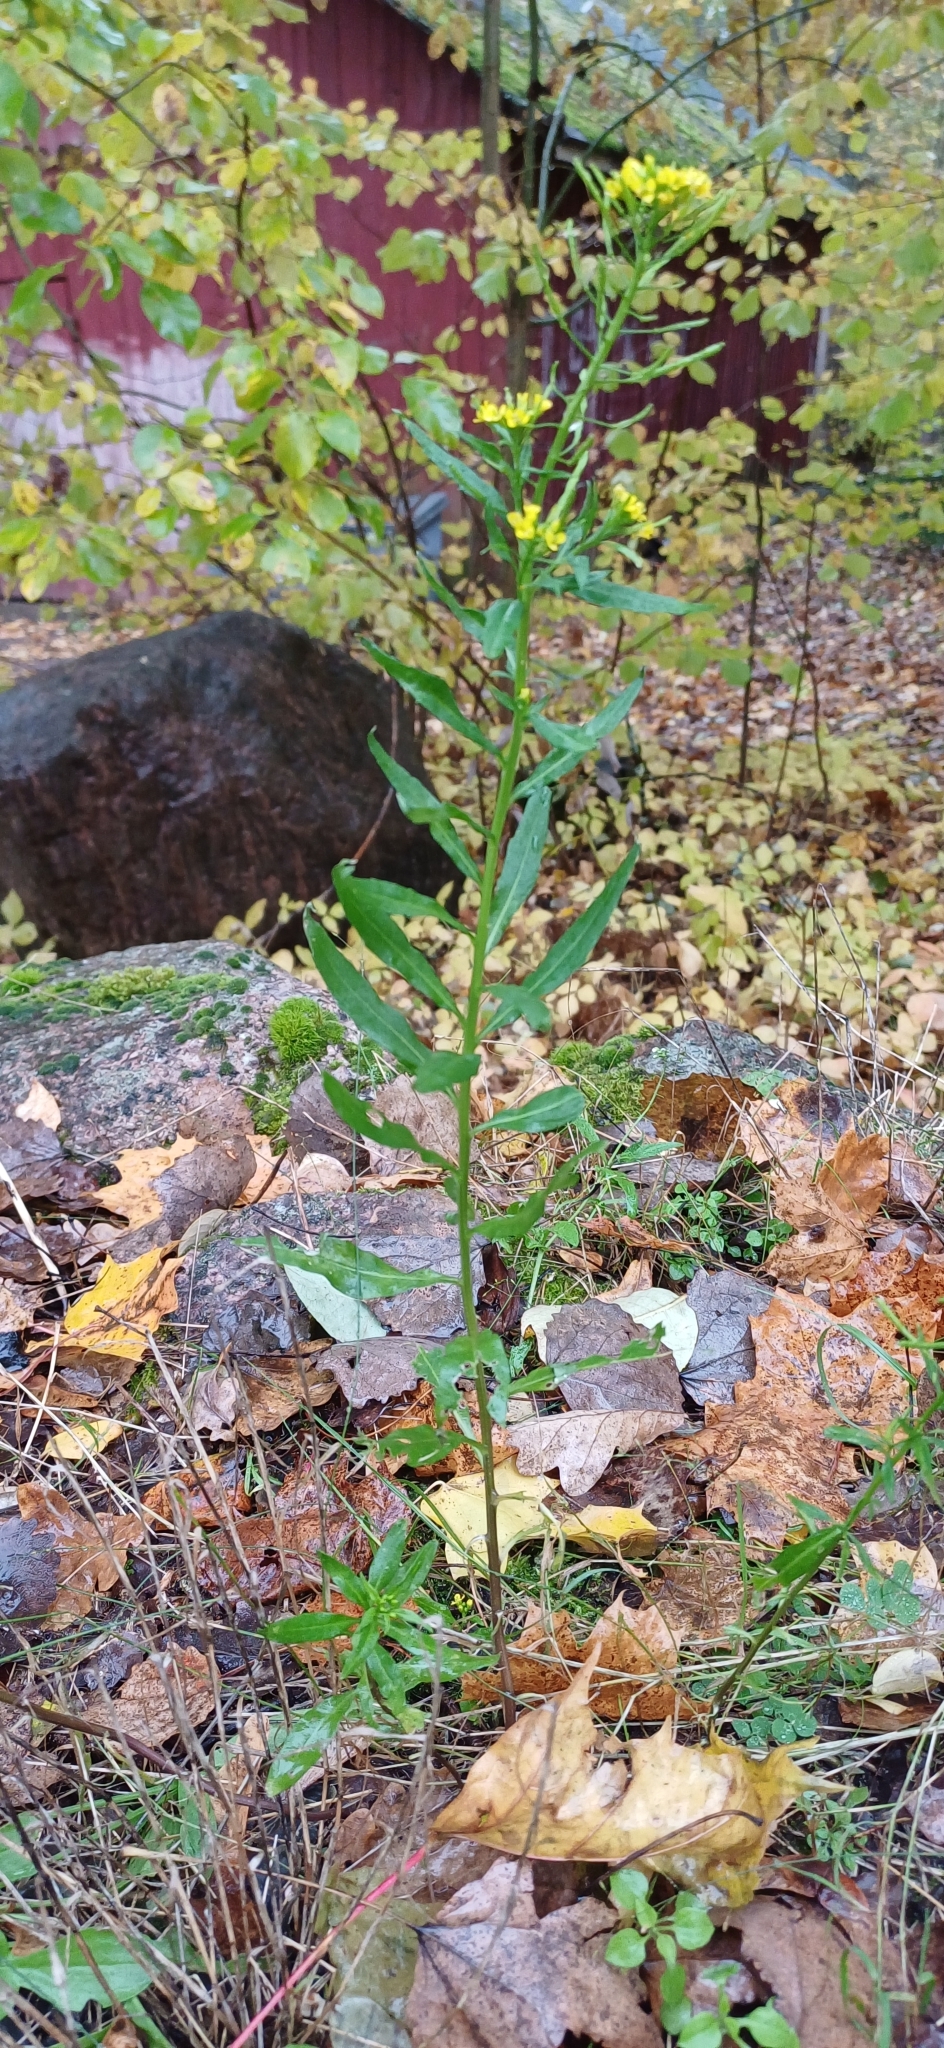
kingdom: Plantae
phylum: Tracheophyta
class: Magnoliopsida
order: Brassicales
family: Brassicaceae
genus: Erysimum
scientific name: Erysimum cheiranthoides
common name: Treacle mustard
